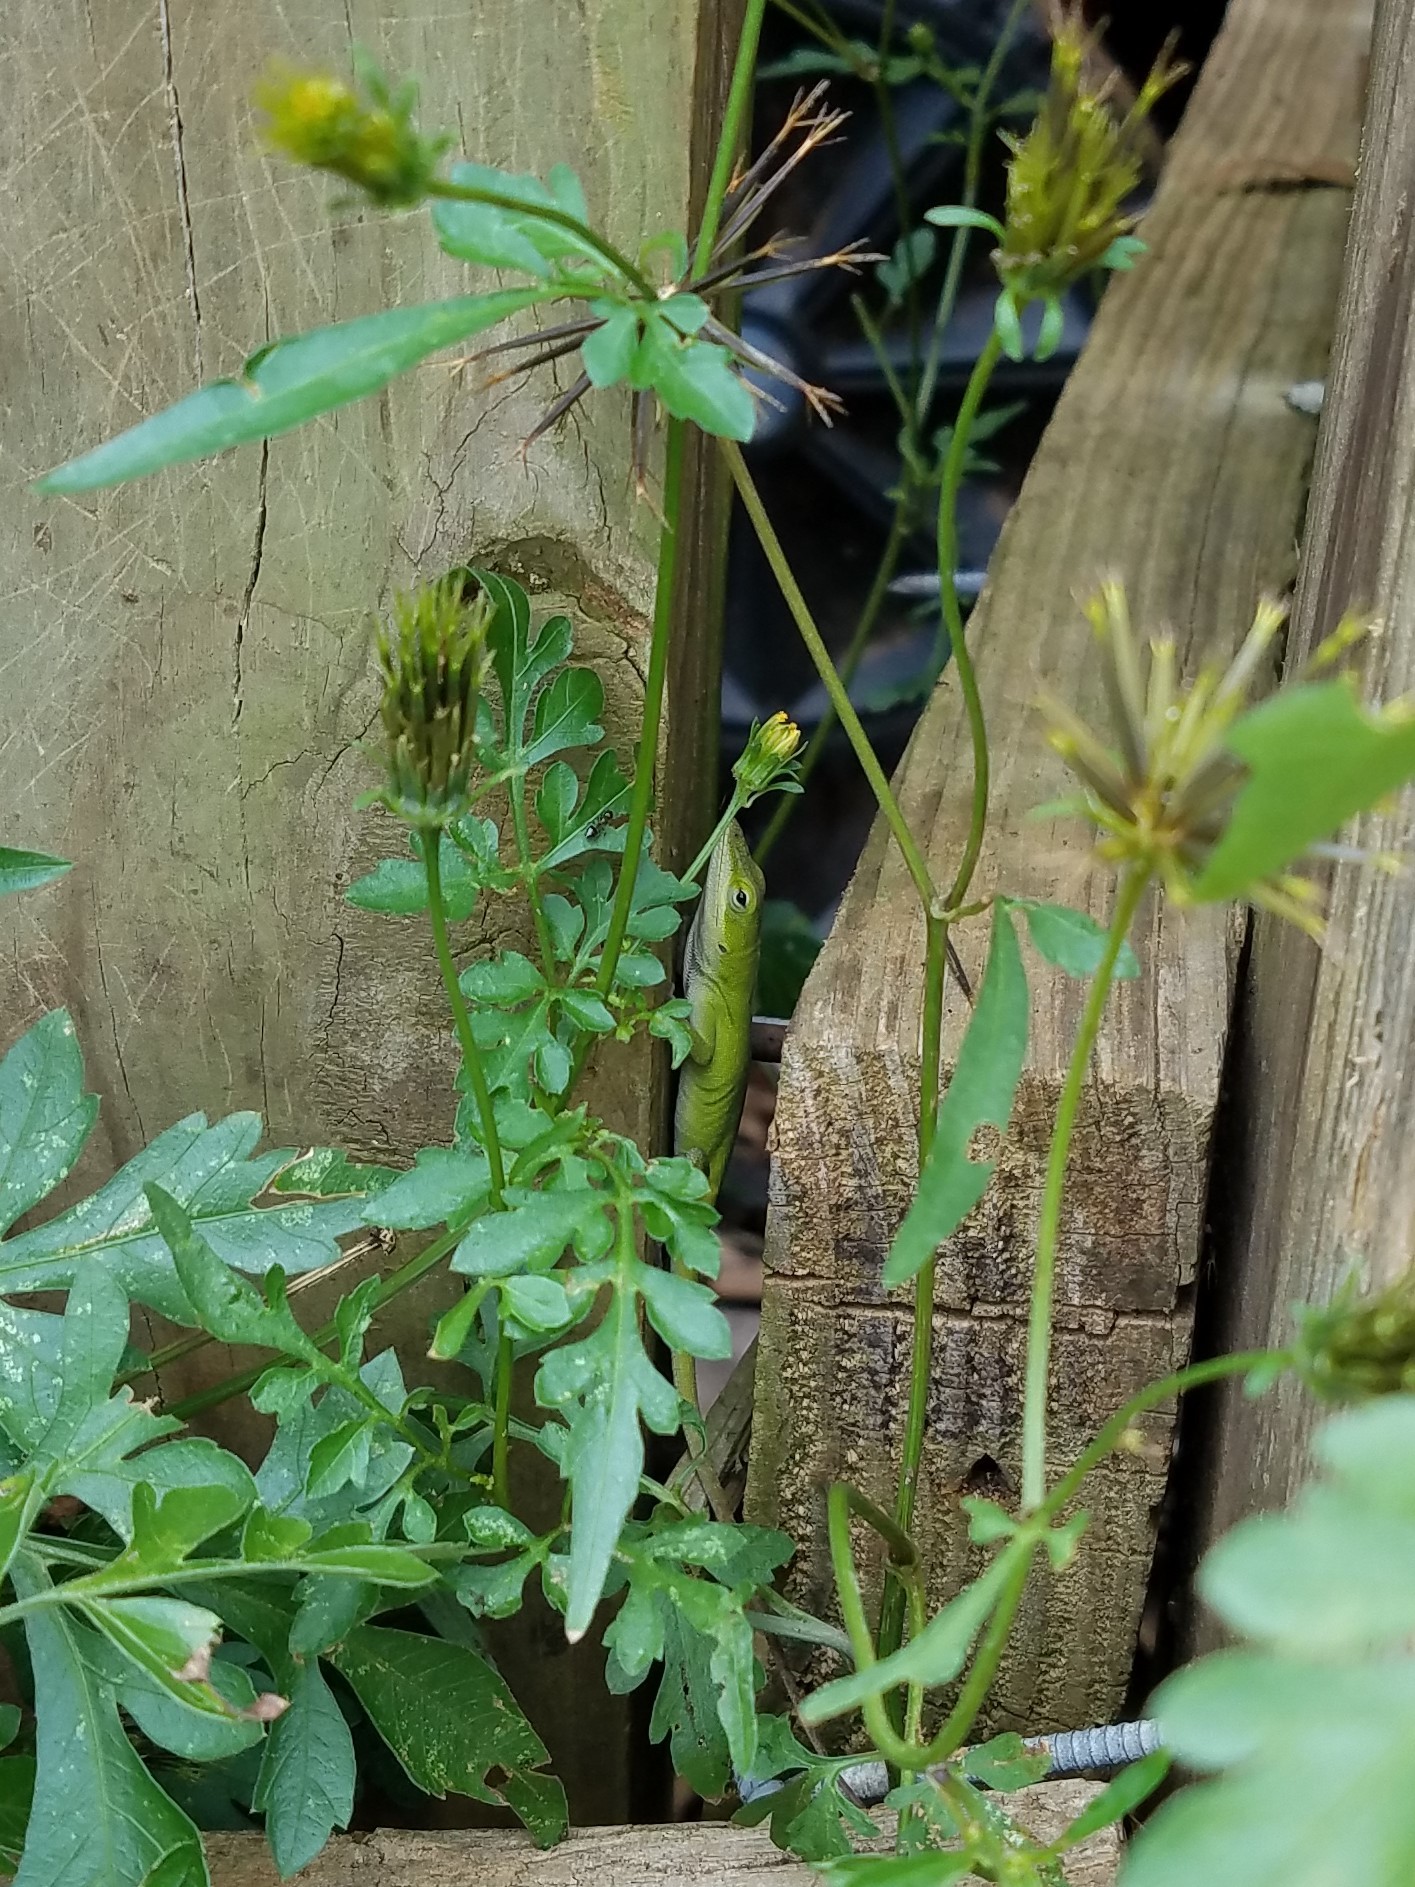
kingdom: Animalia
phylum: Chordata
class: Squamata
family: Dactyloidae
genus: Anolis
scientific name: Anolis carolinensis
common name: Green anole
